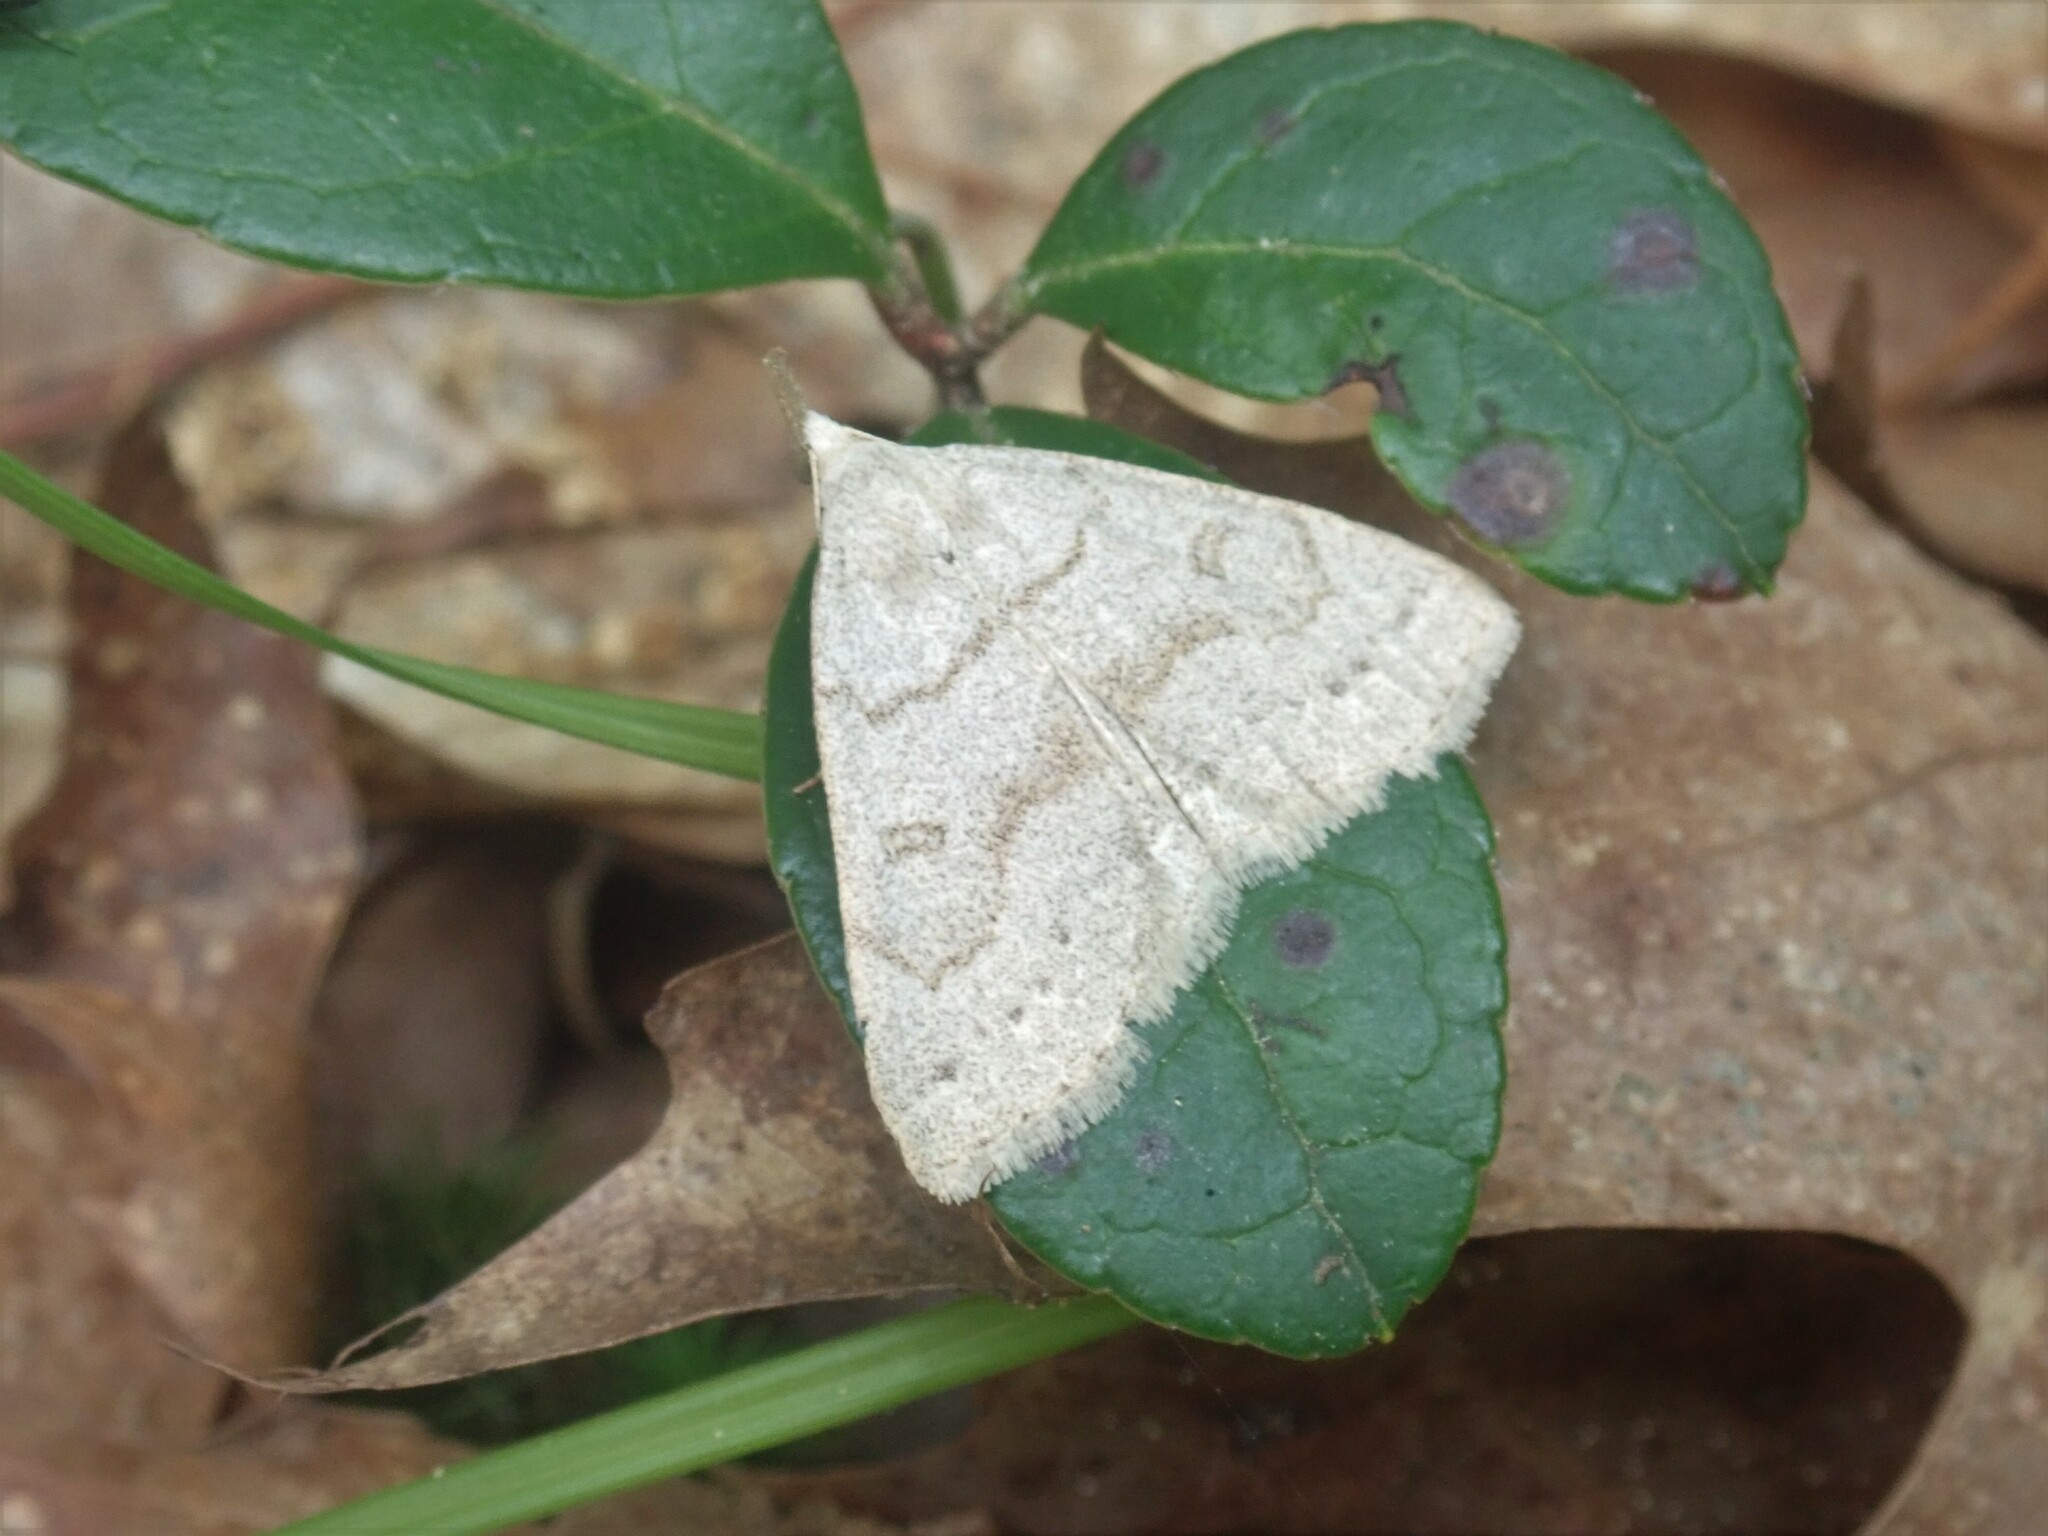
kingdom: Animalia
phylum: Arthropoda
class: Insecta
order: Lepidoptera
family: Erebidae
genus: Macrochilo
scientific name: Macrochilo morbidalis
